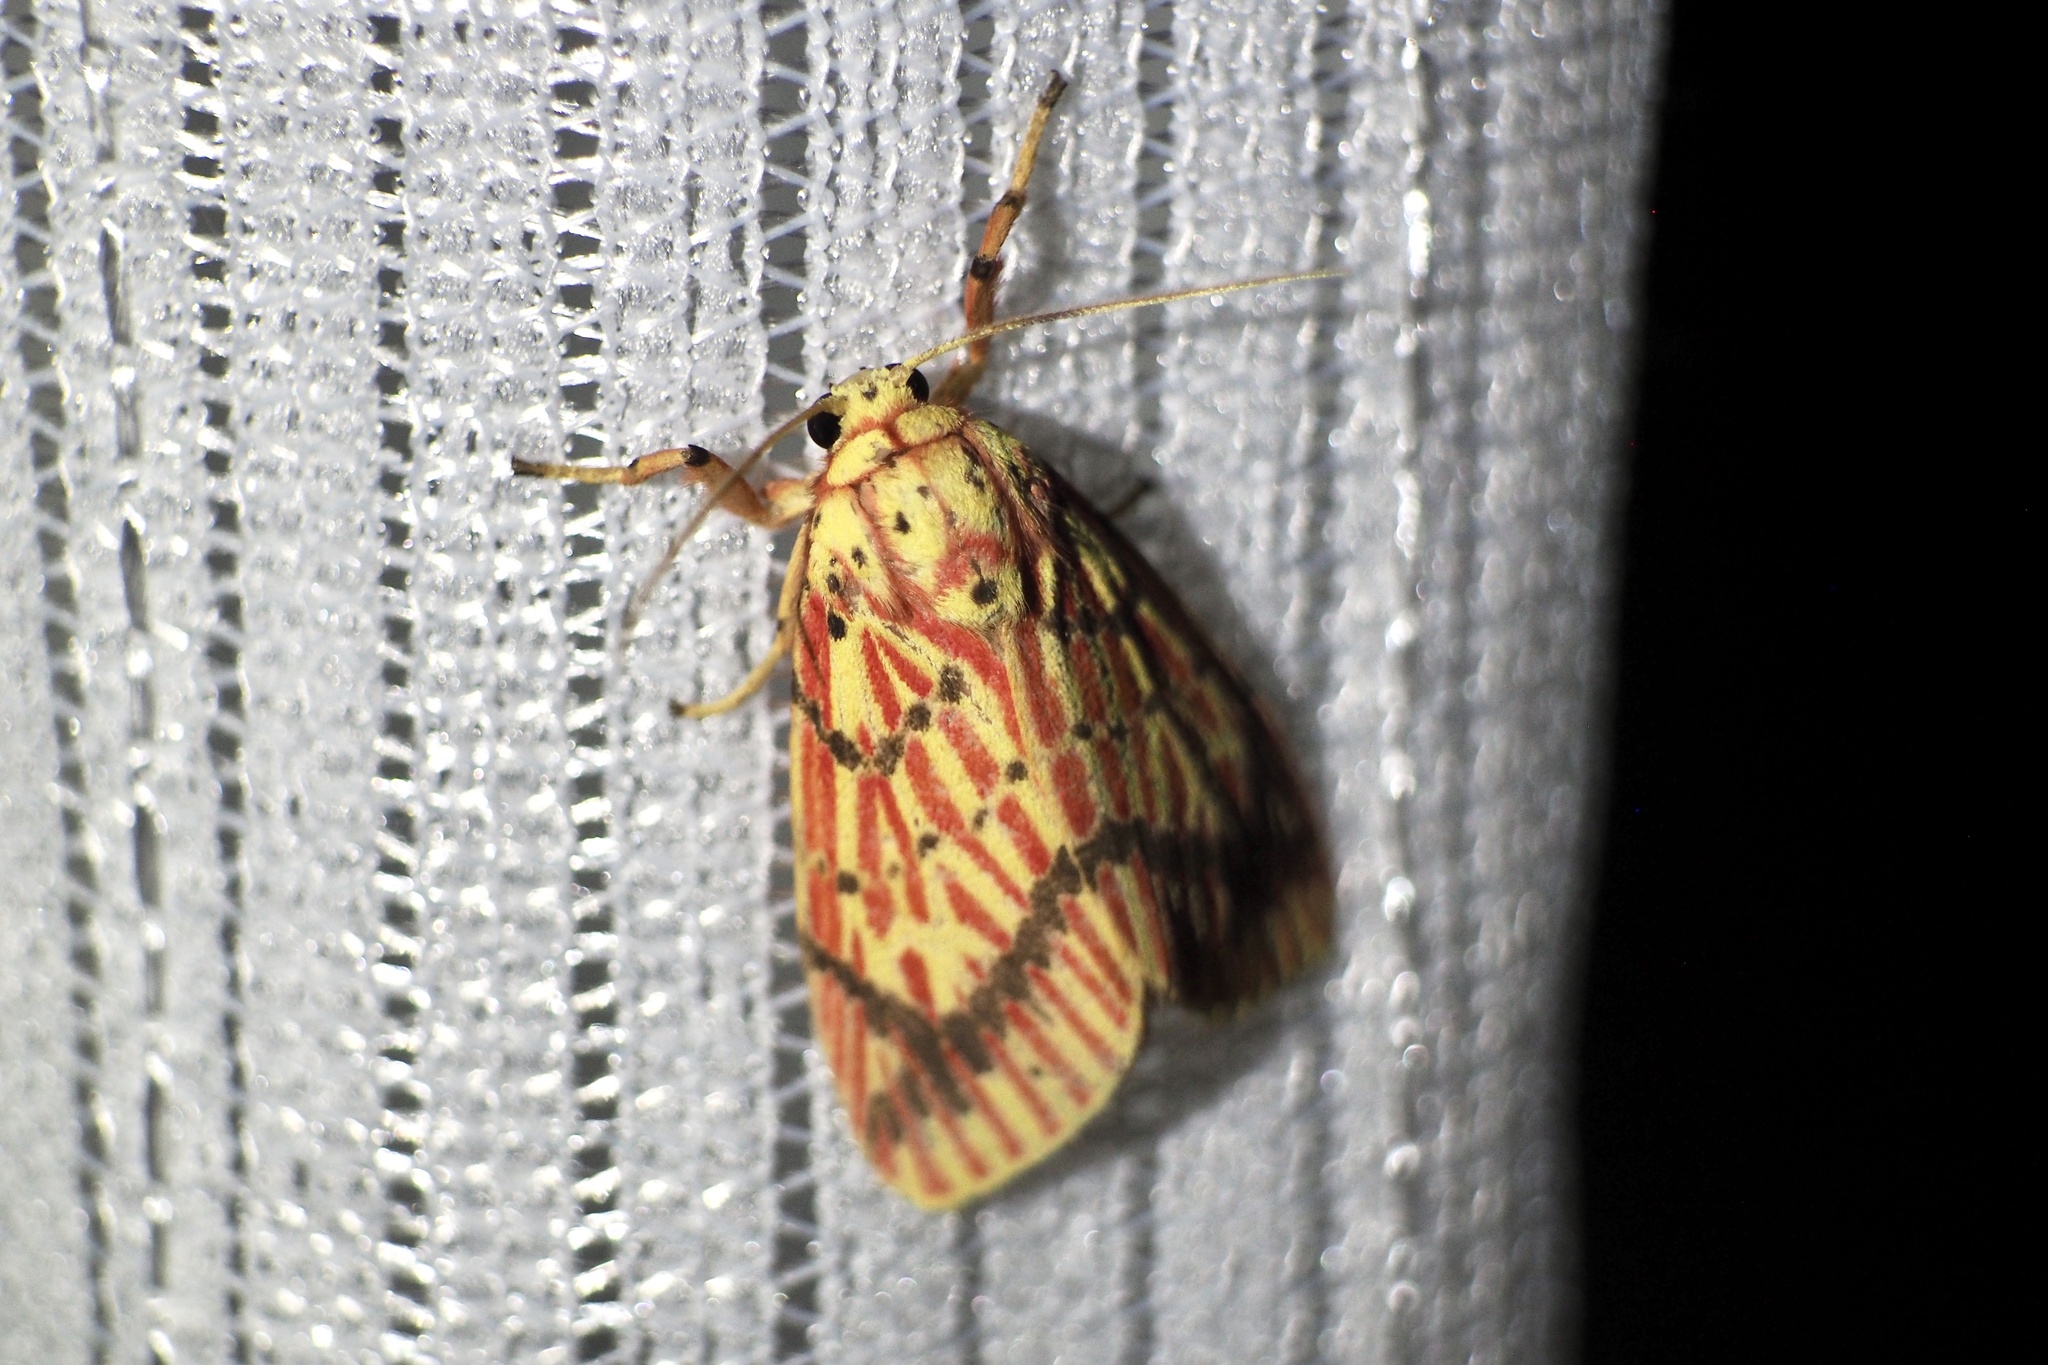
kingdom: Animalia
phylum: Arthropoda
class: Insecta
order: Lepidoptera
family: Erebidae
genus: Barsine
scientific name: Barsine striata
